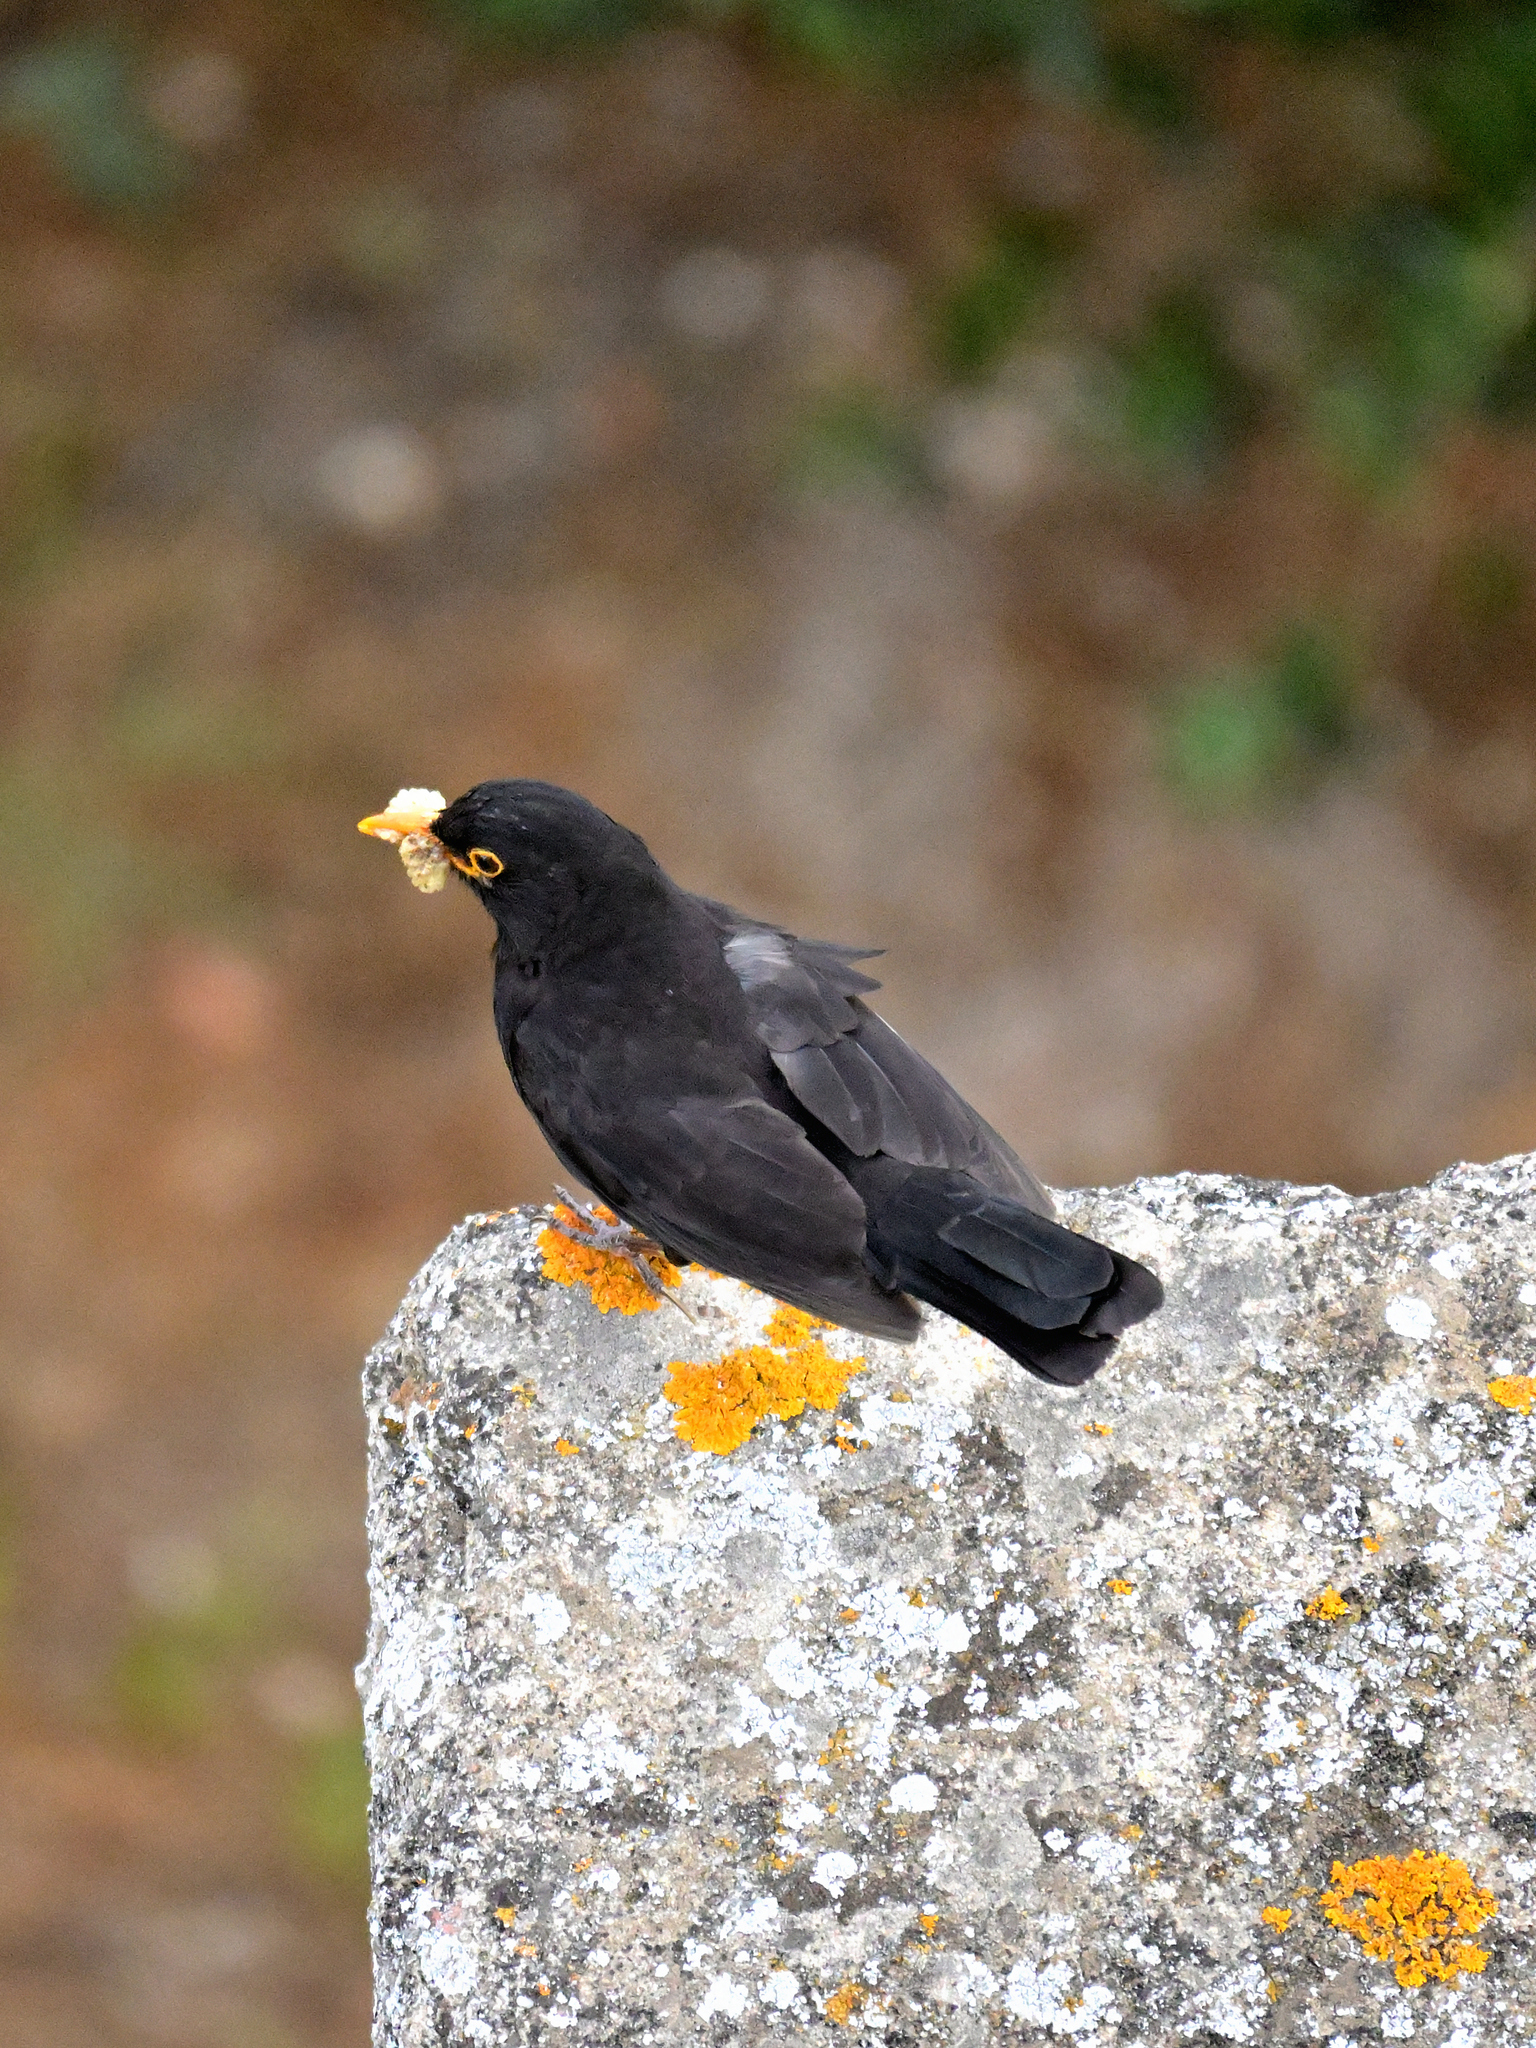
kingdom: Animalia
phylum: Chordata
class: Aves
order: Passeriformes
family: Turdidae
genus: Turdus
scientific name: Turdus merula
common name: Common blackbird
